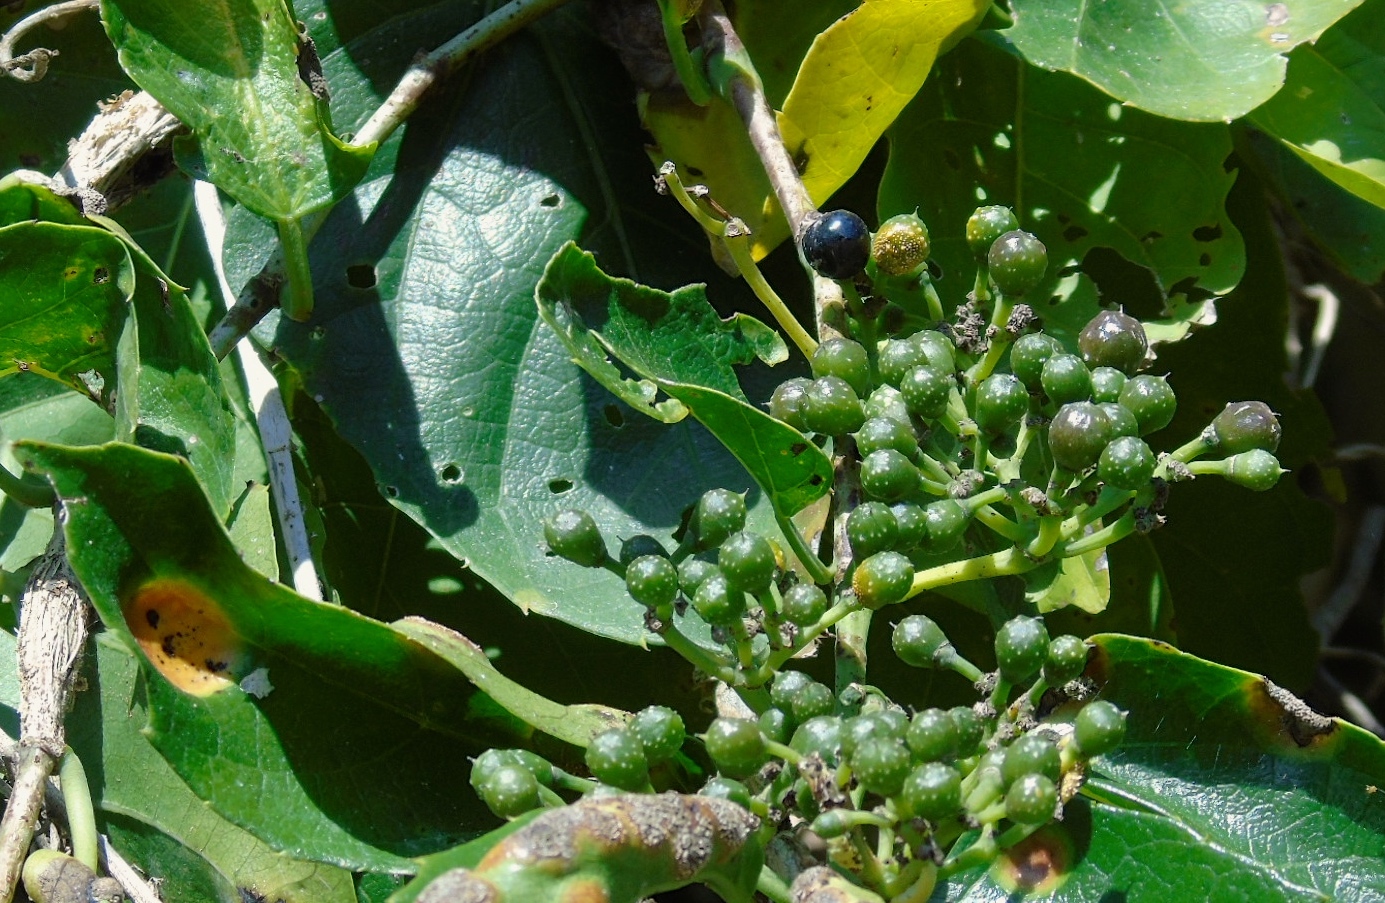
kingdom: Plantae
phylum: Tracheophyta
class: Magnoliopsida
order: Vitales
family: Vitaceae
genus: Cissus
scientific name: Cissus verticillata
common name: Princess vine
